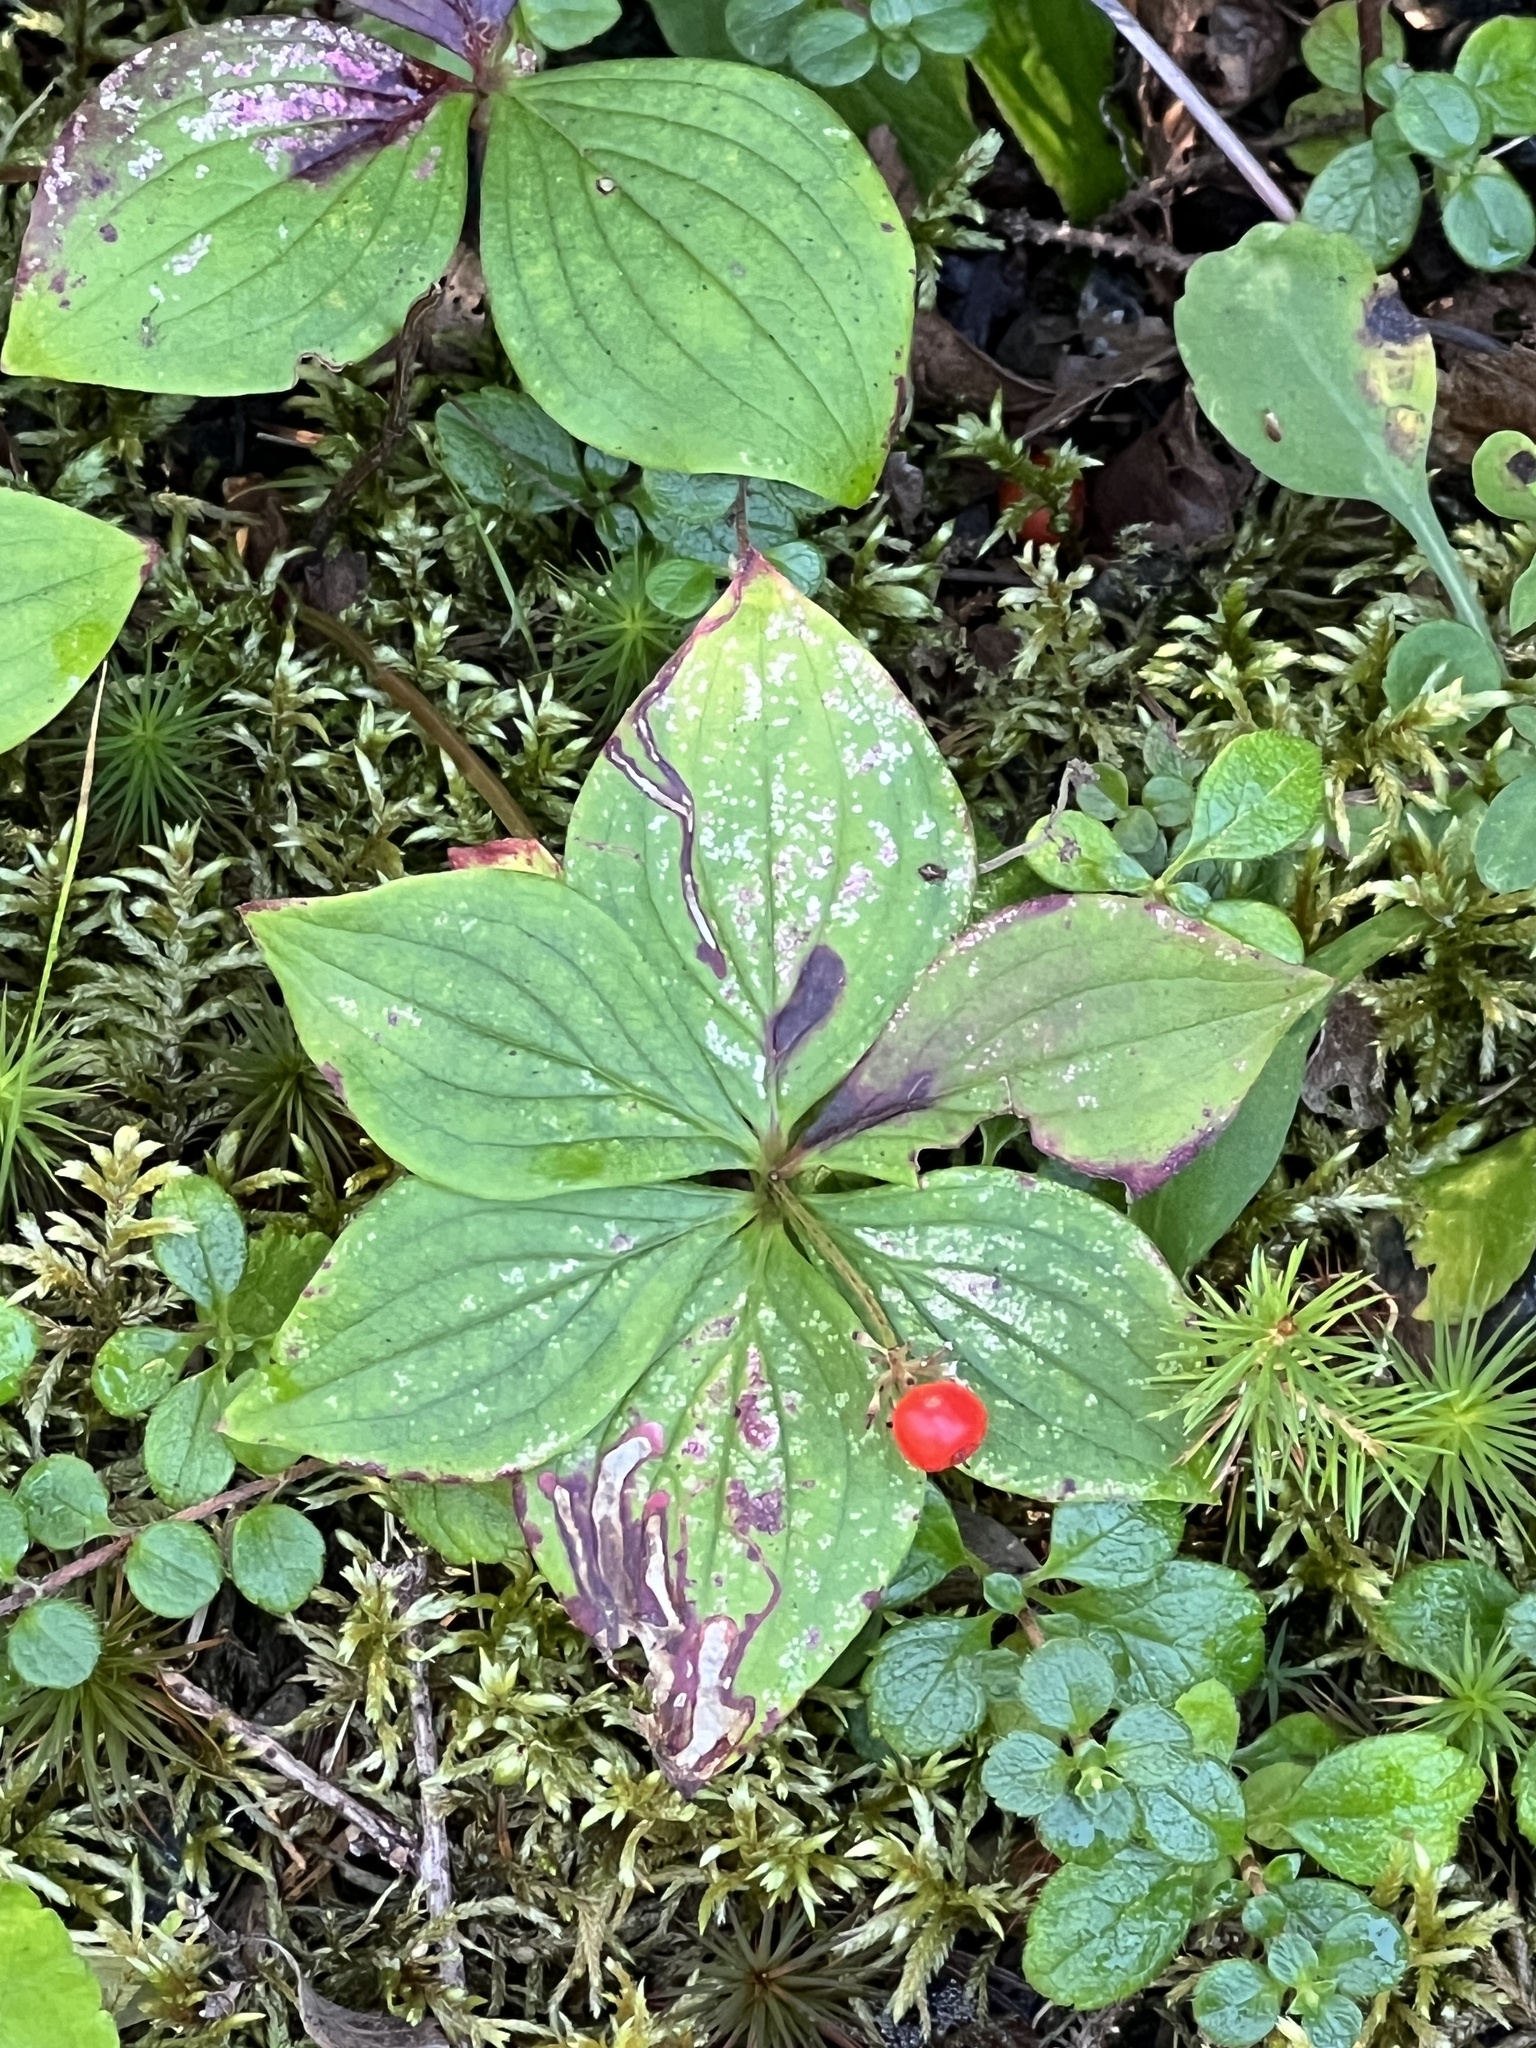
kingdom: Plantae
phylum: Tracheophyta
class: Magnoliopsida
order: Cornales
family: Cornaceae
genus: Cornus
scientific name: Cornus canadensis
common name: Creeping dogwood
